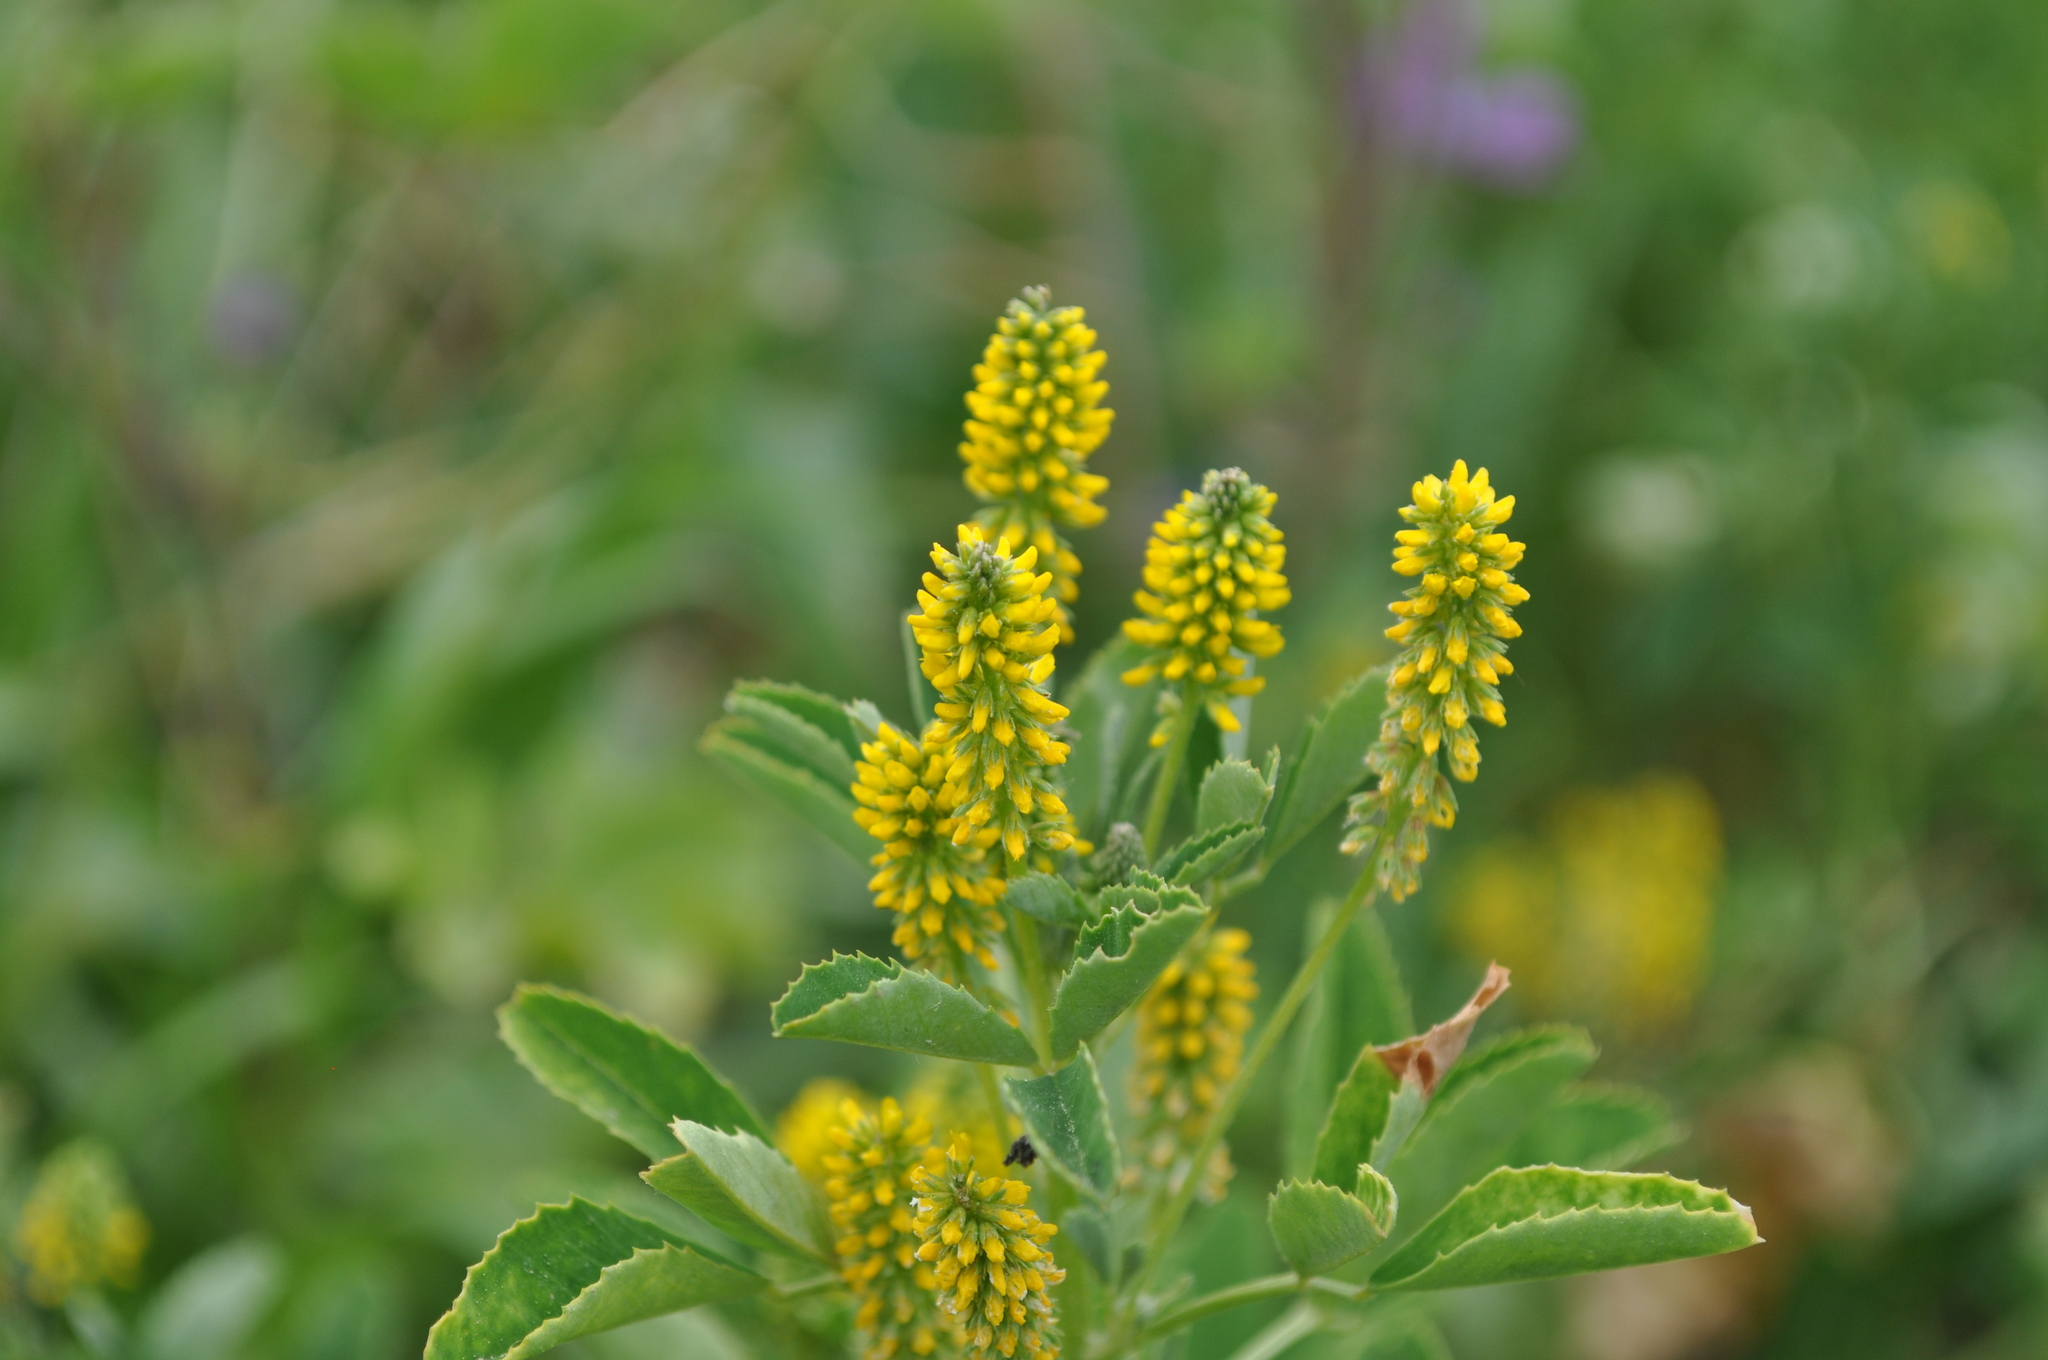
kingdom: Plantae
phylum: Tracheophyta
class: Magnoliopsida
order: Fabales
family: Fabaceae
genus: Melilotus
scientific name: Melilotus indicus
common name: Small melilot
